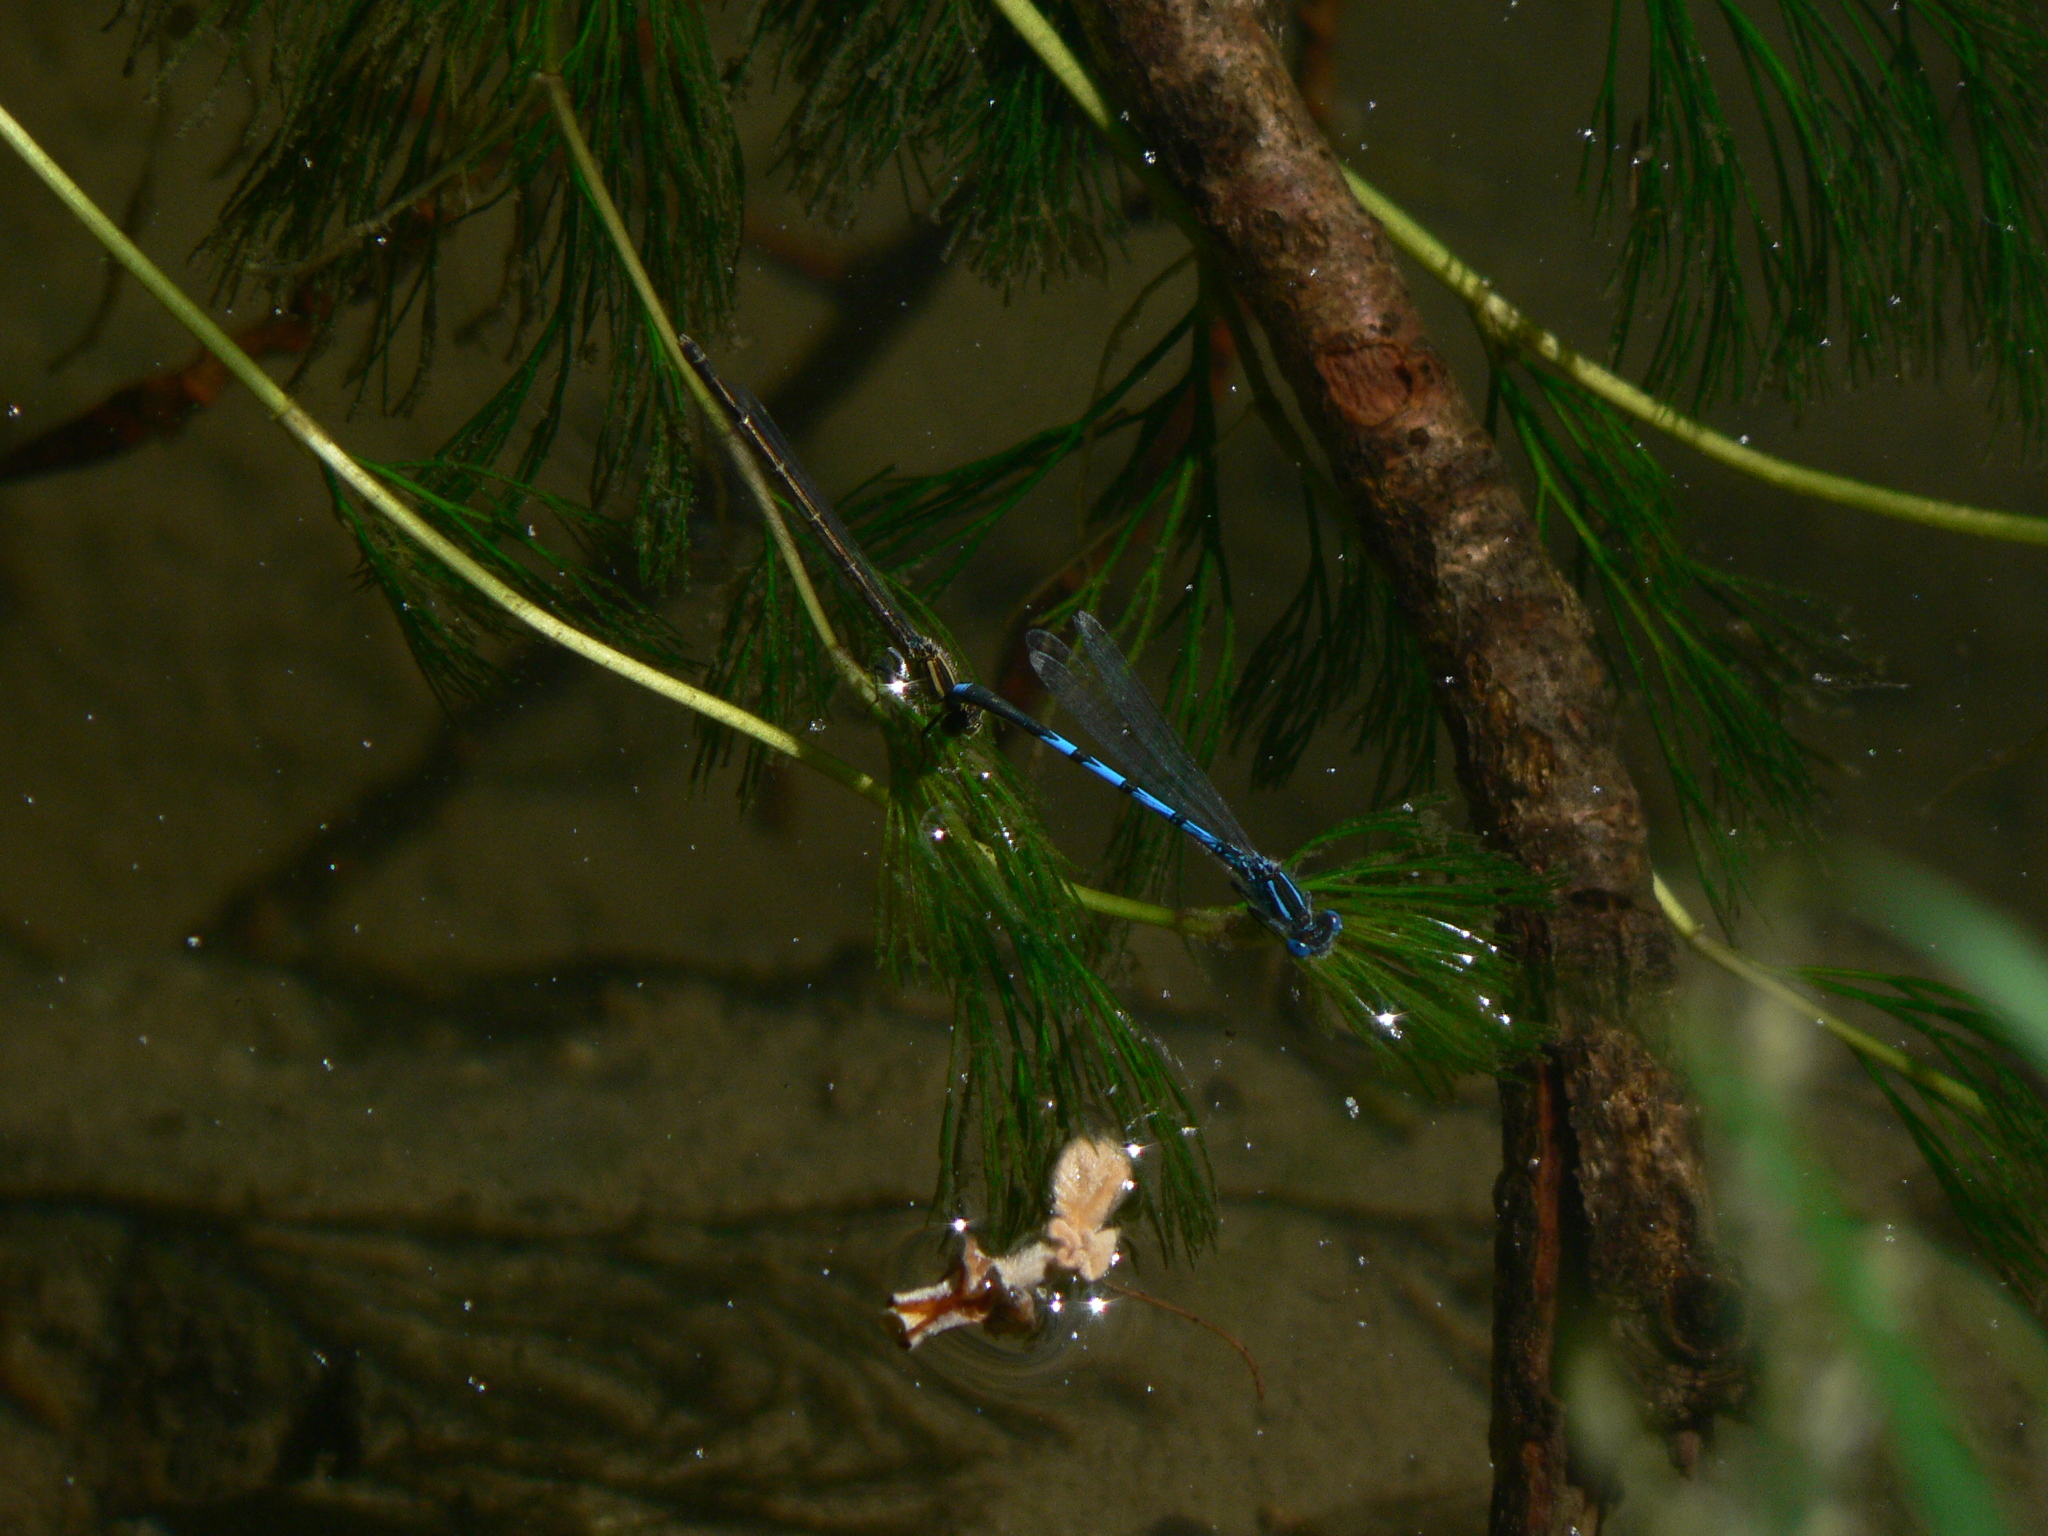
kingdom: Animalia
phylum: Arthropoda
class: Insecta
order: Odonata
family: Coenagrionidae
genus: Erythromma
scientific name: Erythromma lindenii
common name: Blue-eye
